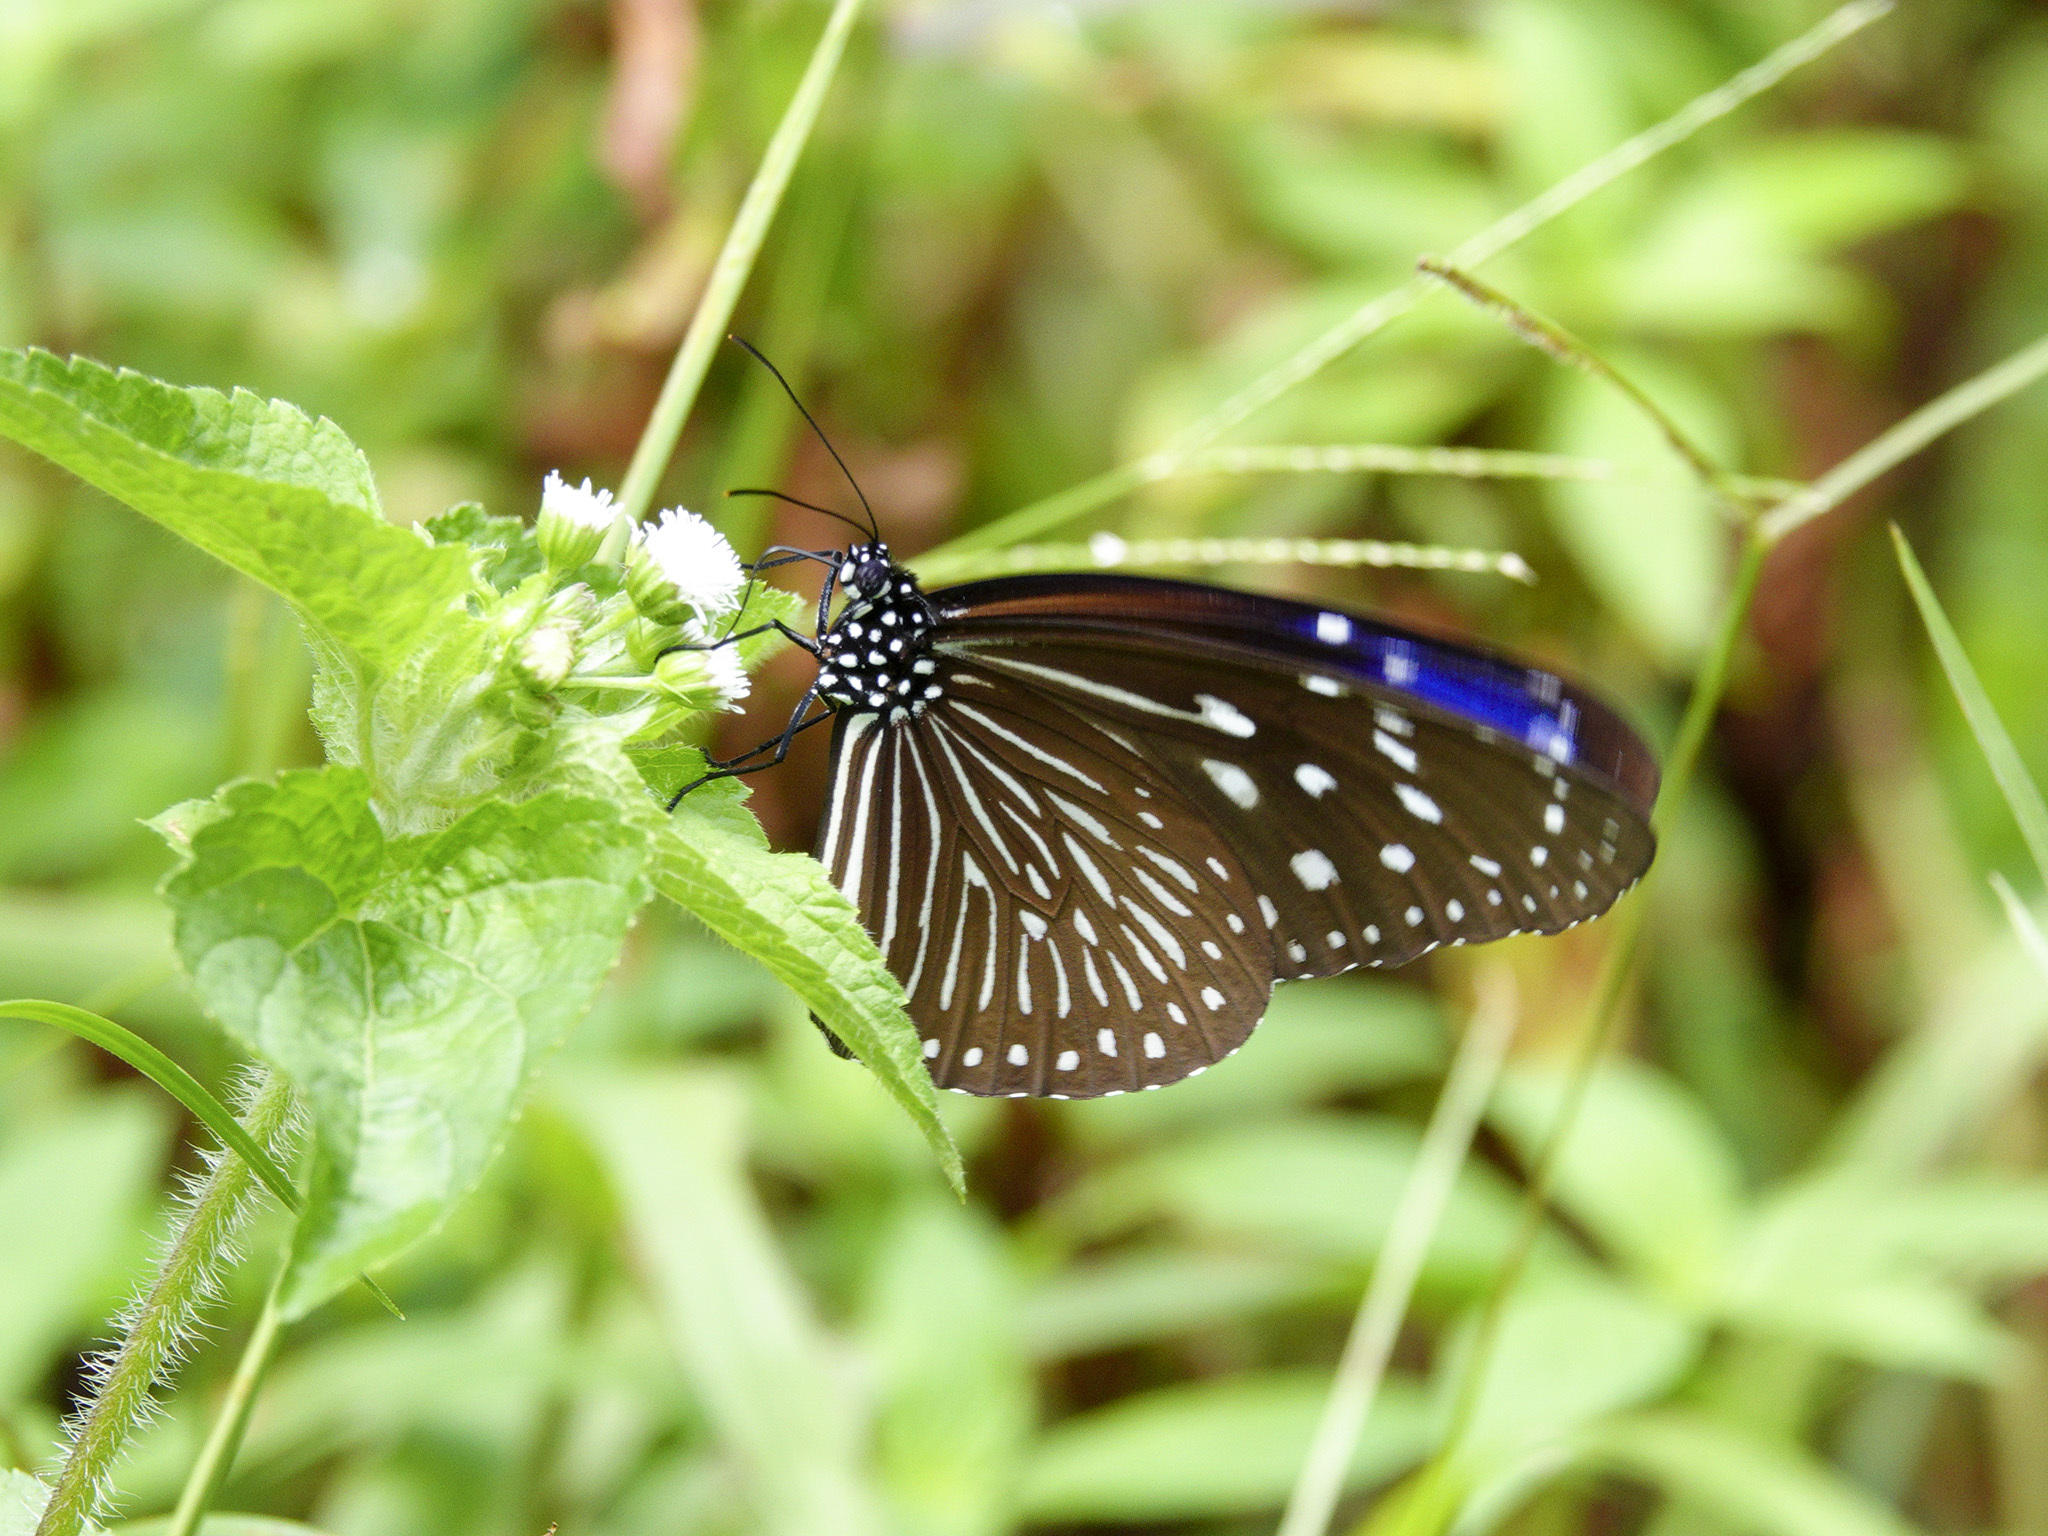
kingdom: Animalia
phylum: Arthropoda
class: Insecta
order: Lepidoptera
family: Nymphalidae
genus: Euploea
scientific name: Euploea mulciber
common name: Striped blue crow butterfly
